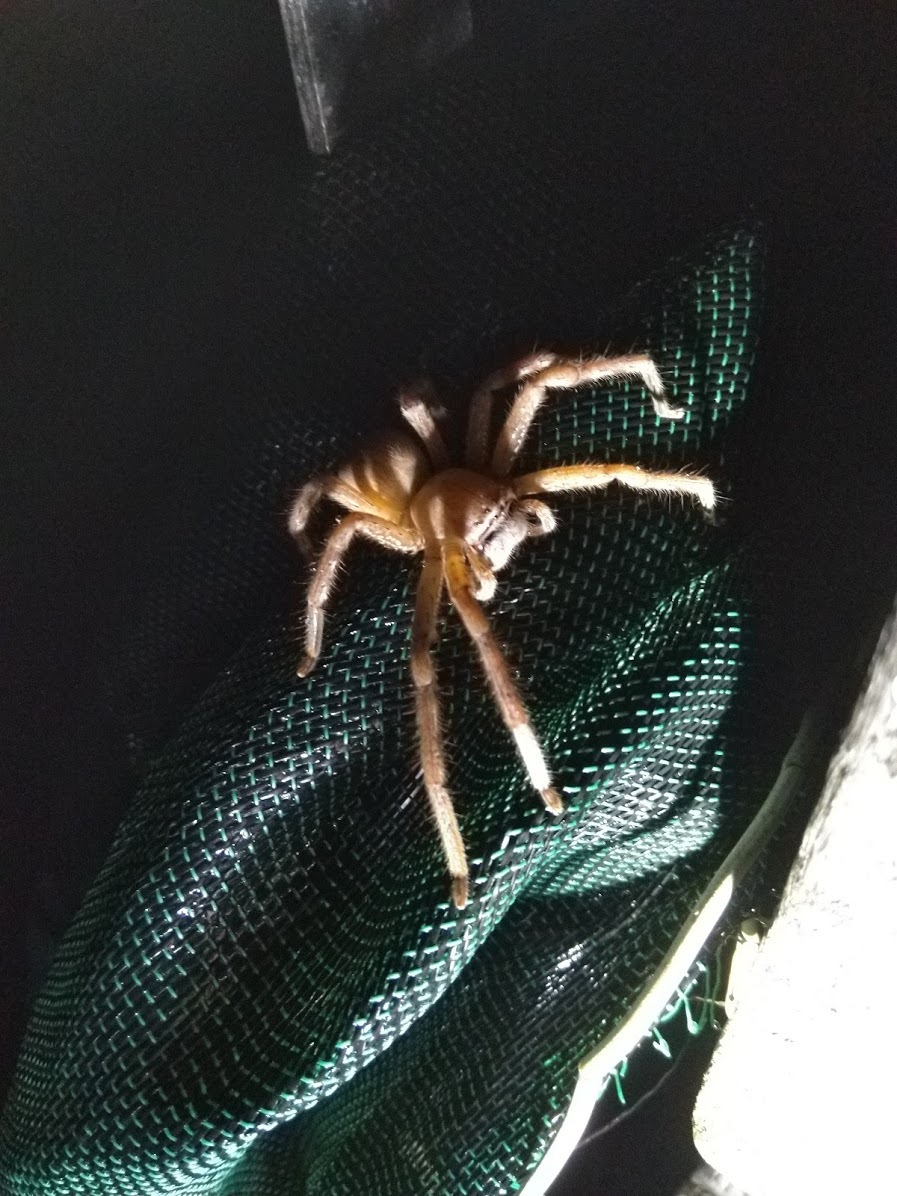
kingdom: Animalia
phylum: Arthropoda
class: Arachnida
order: Araneae
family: Sparassidae
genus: Neosparassus
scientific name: Neosparassus salacius
